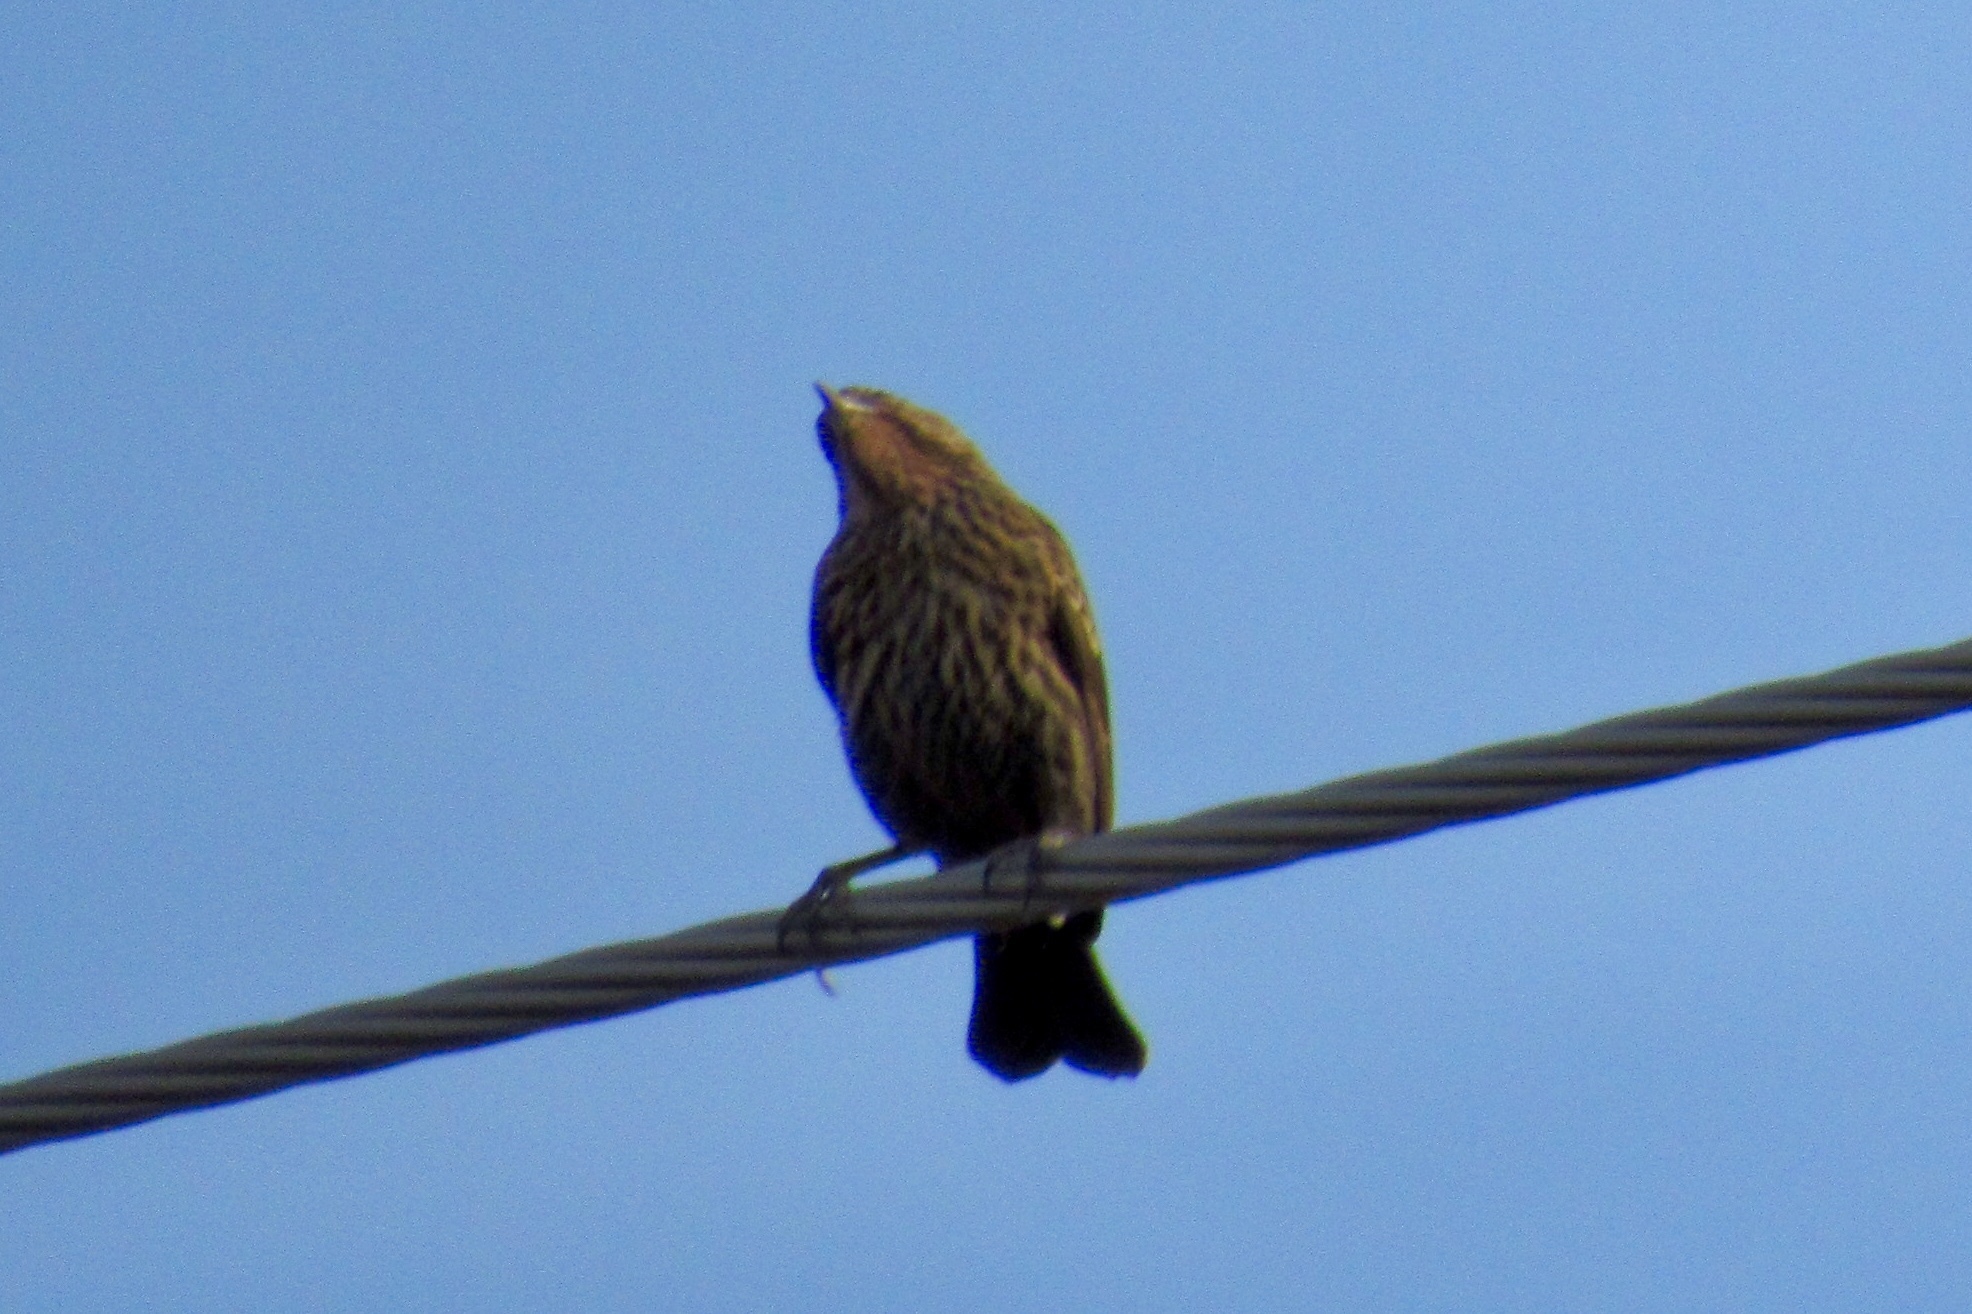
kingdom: Animalia
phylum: Chordata
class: Aves
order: Passeriformes
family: Icteridae
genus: Agelaius
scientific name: Agelaius phoeniceus
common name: Red-winged blackbird
